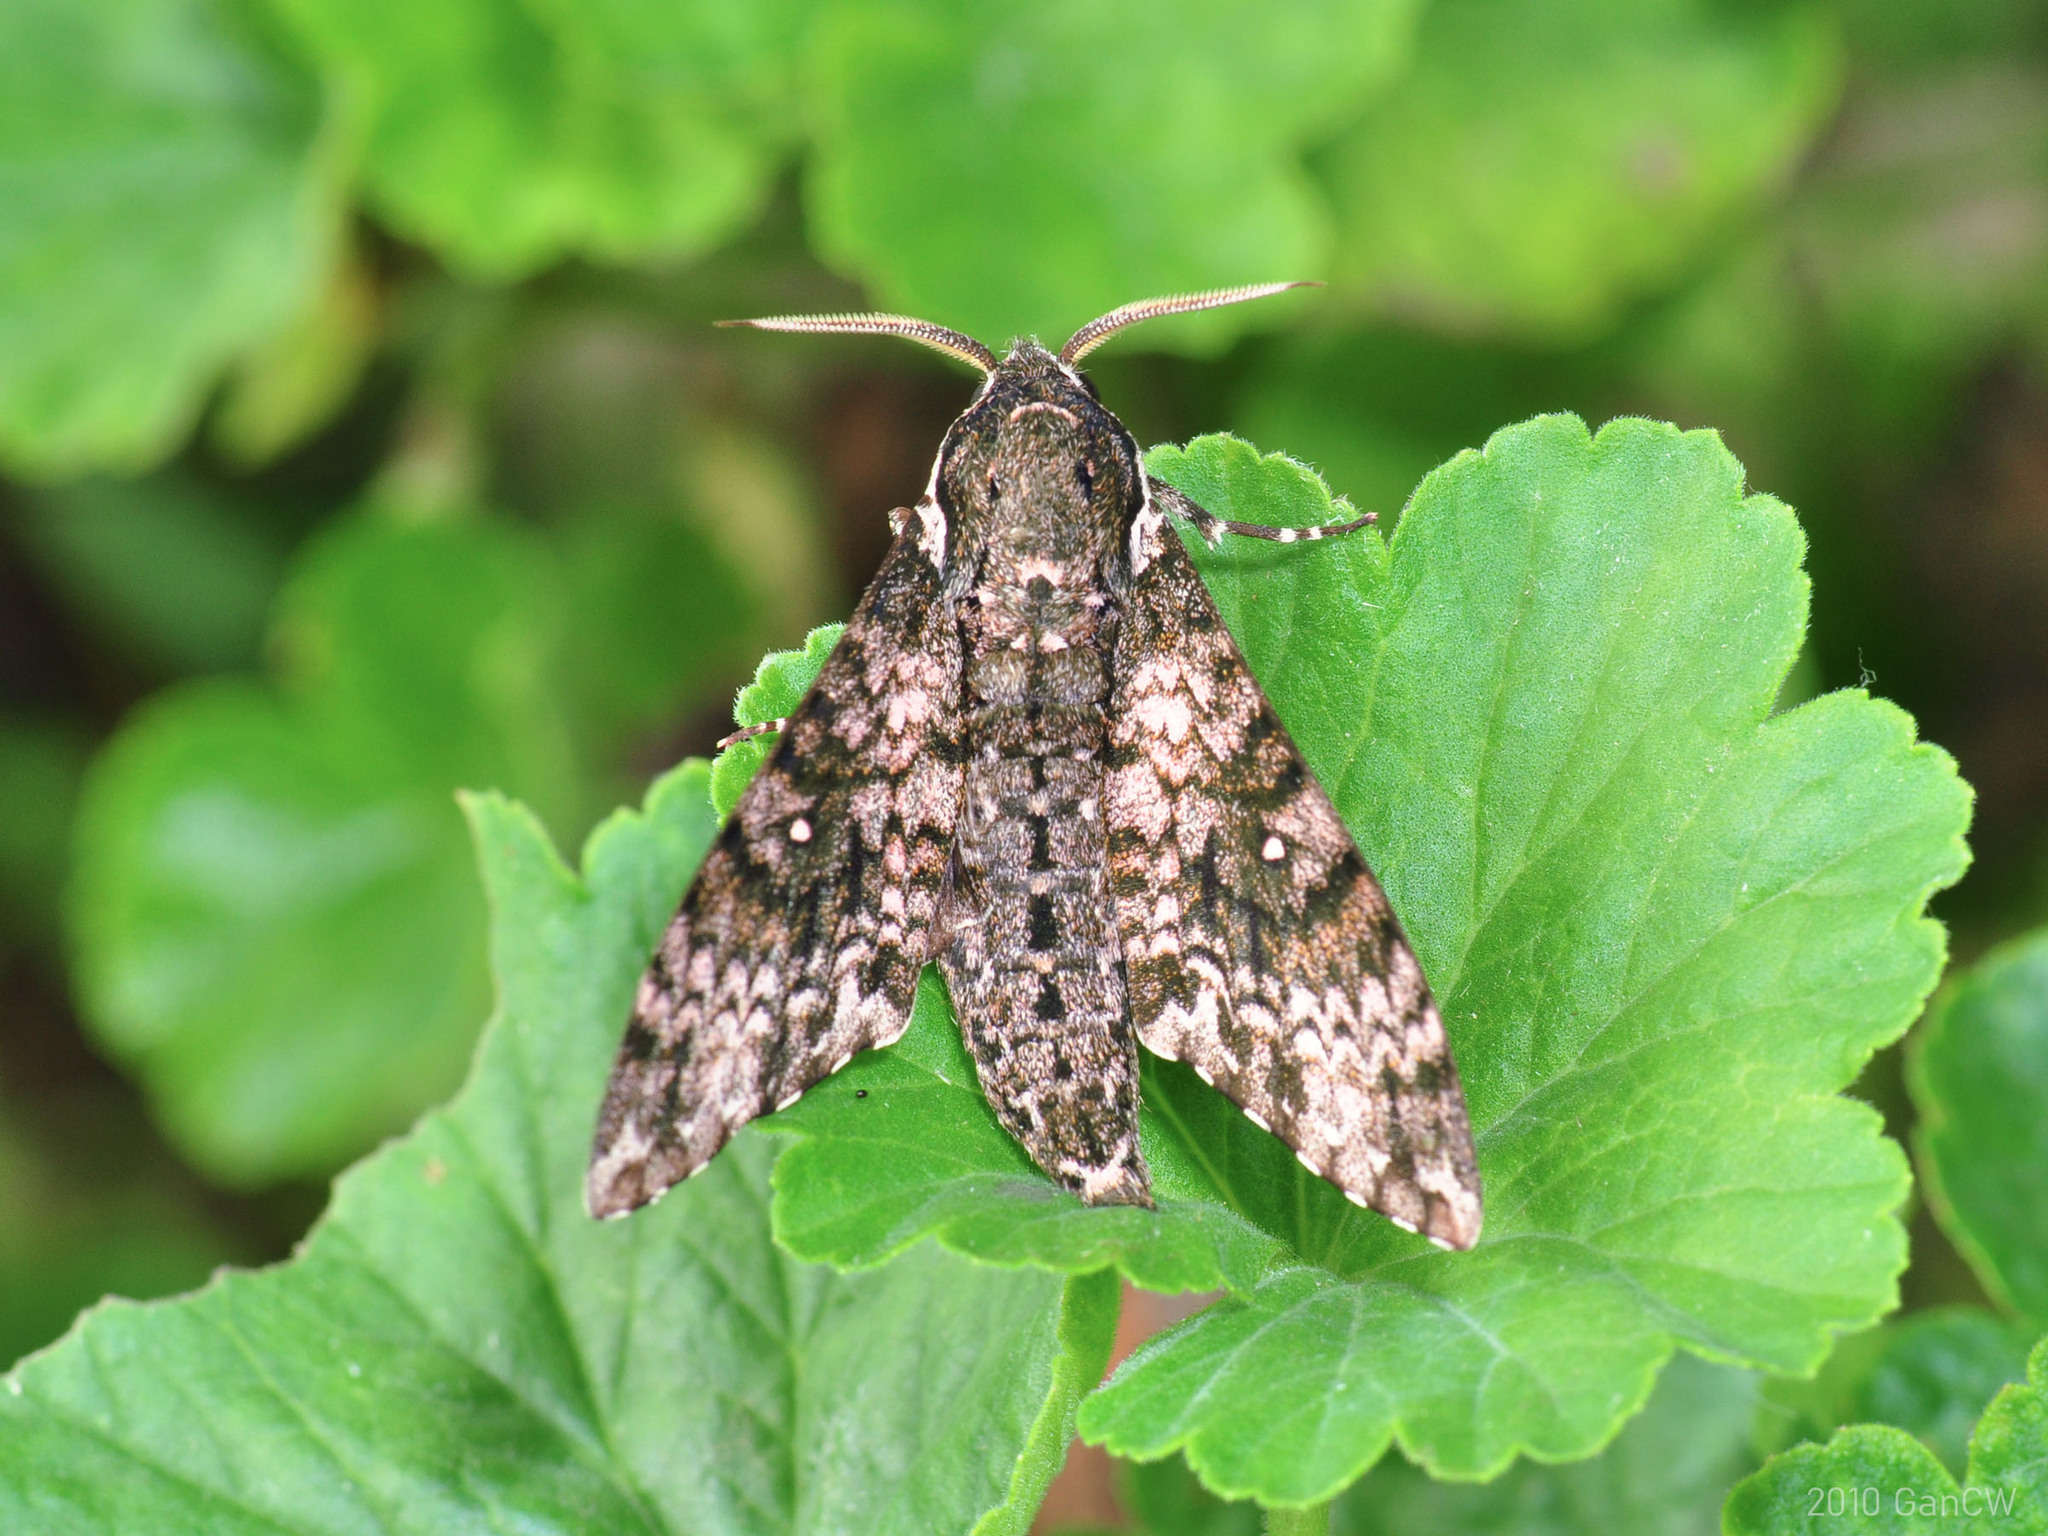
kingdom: Animalia
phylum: Arthropoda
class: Insecta
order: Lepidoptera
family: Sphingidae
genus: Dolbina
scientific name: Dolbina borneensis
